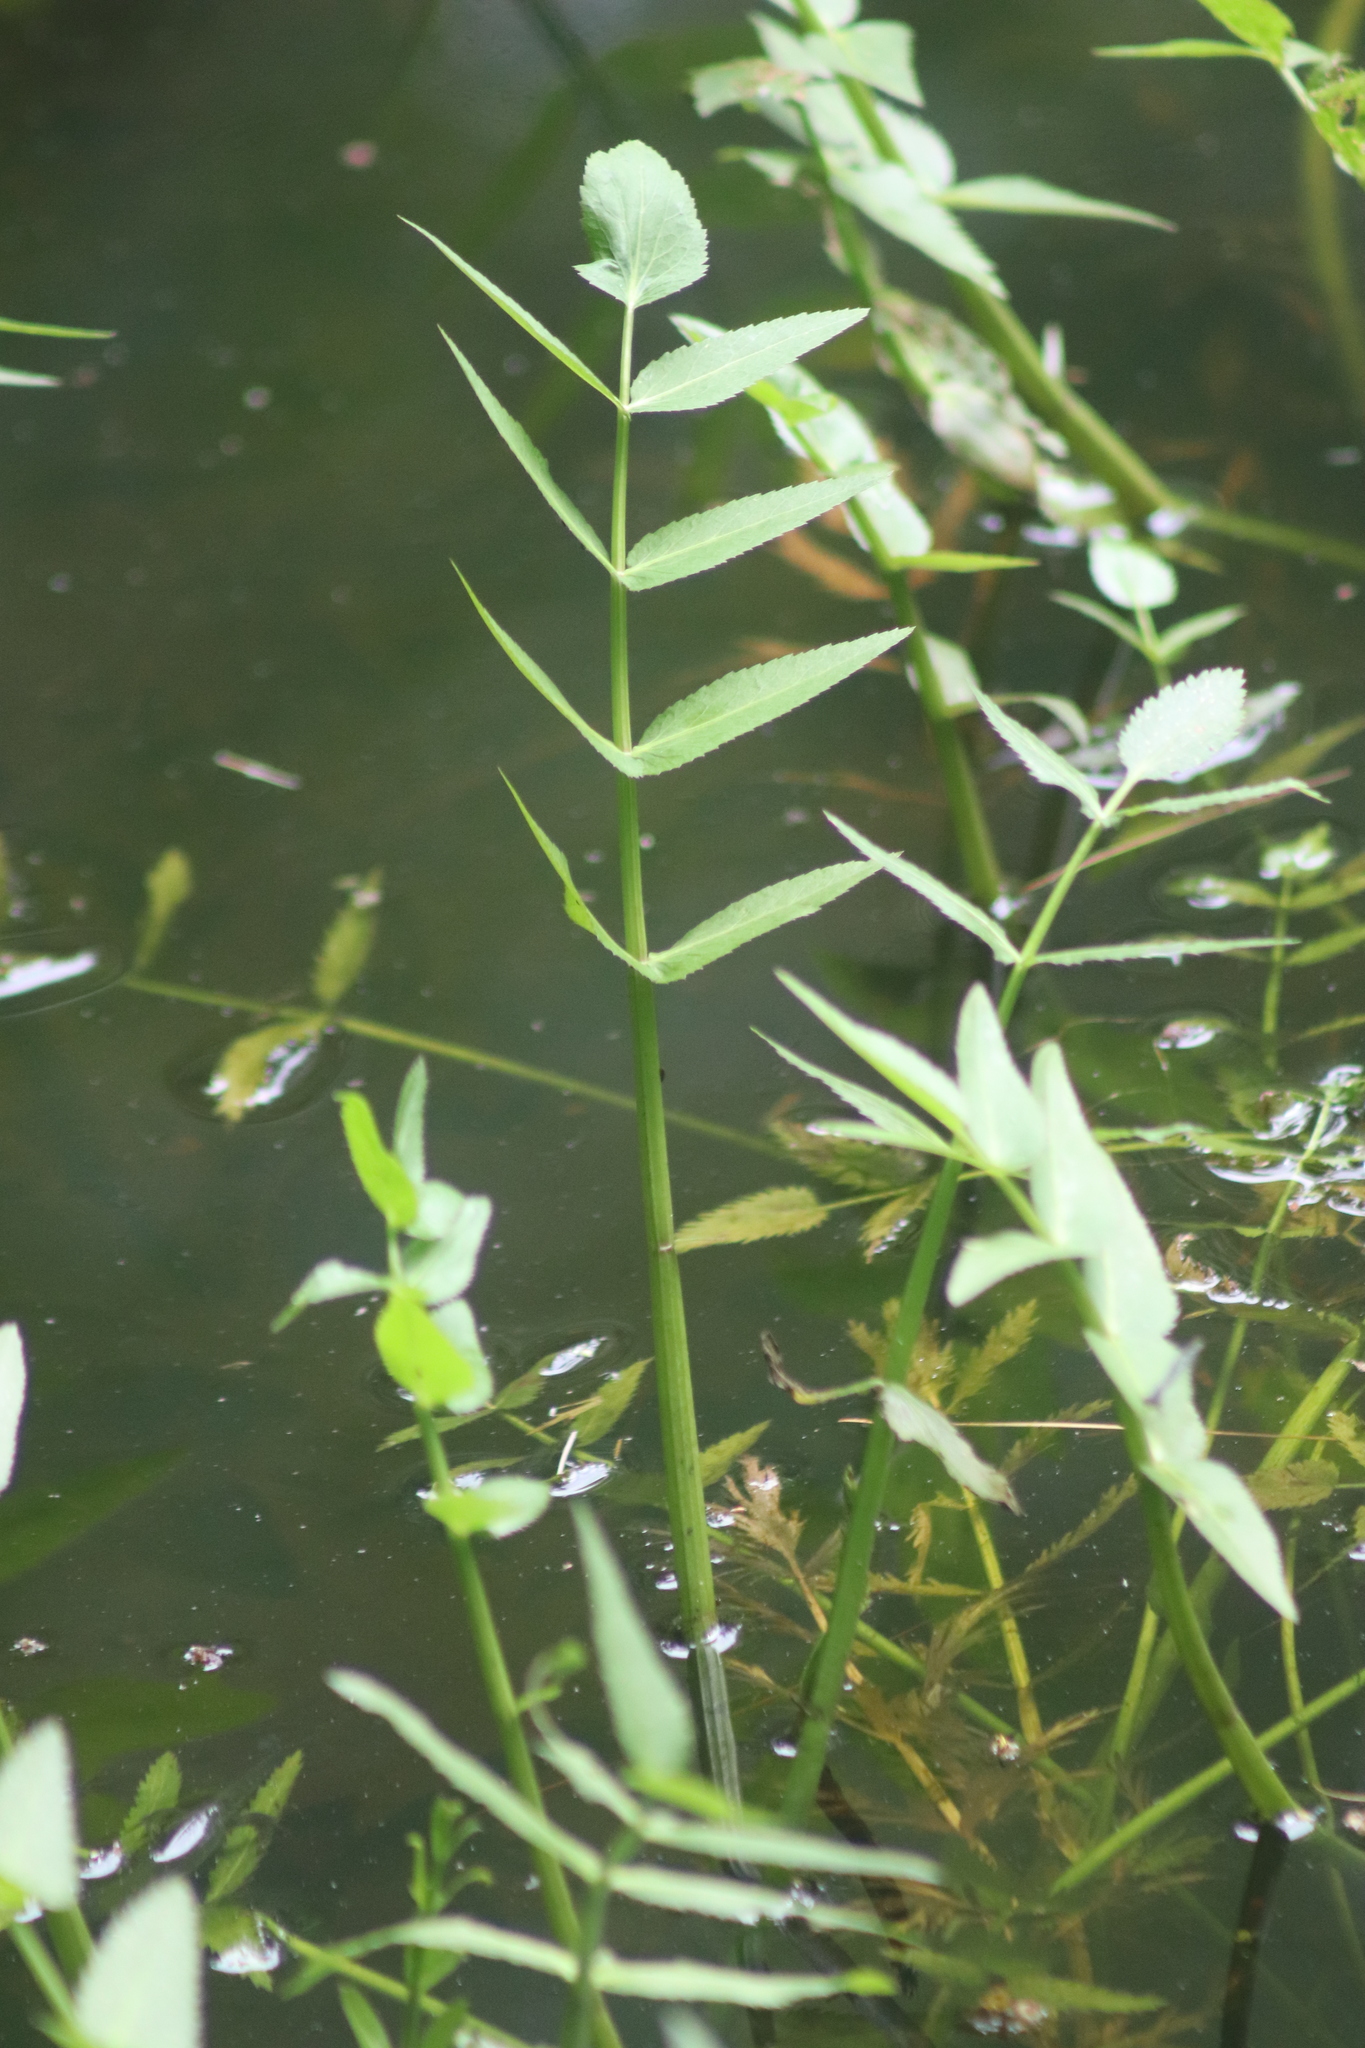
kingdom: Plantae
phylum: Tracheophyta
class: Magnoliopsida
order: Apiales
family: Apiaceae
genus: Sium
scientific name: Sium suave
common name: Hemlock water-parsnip
